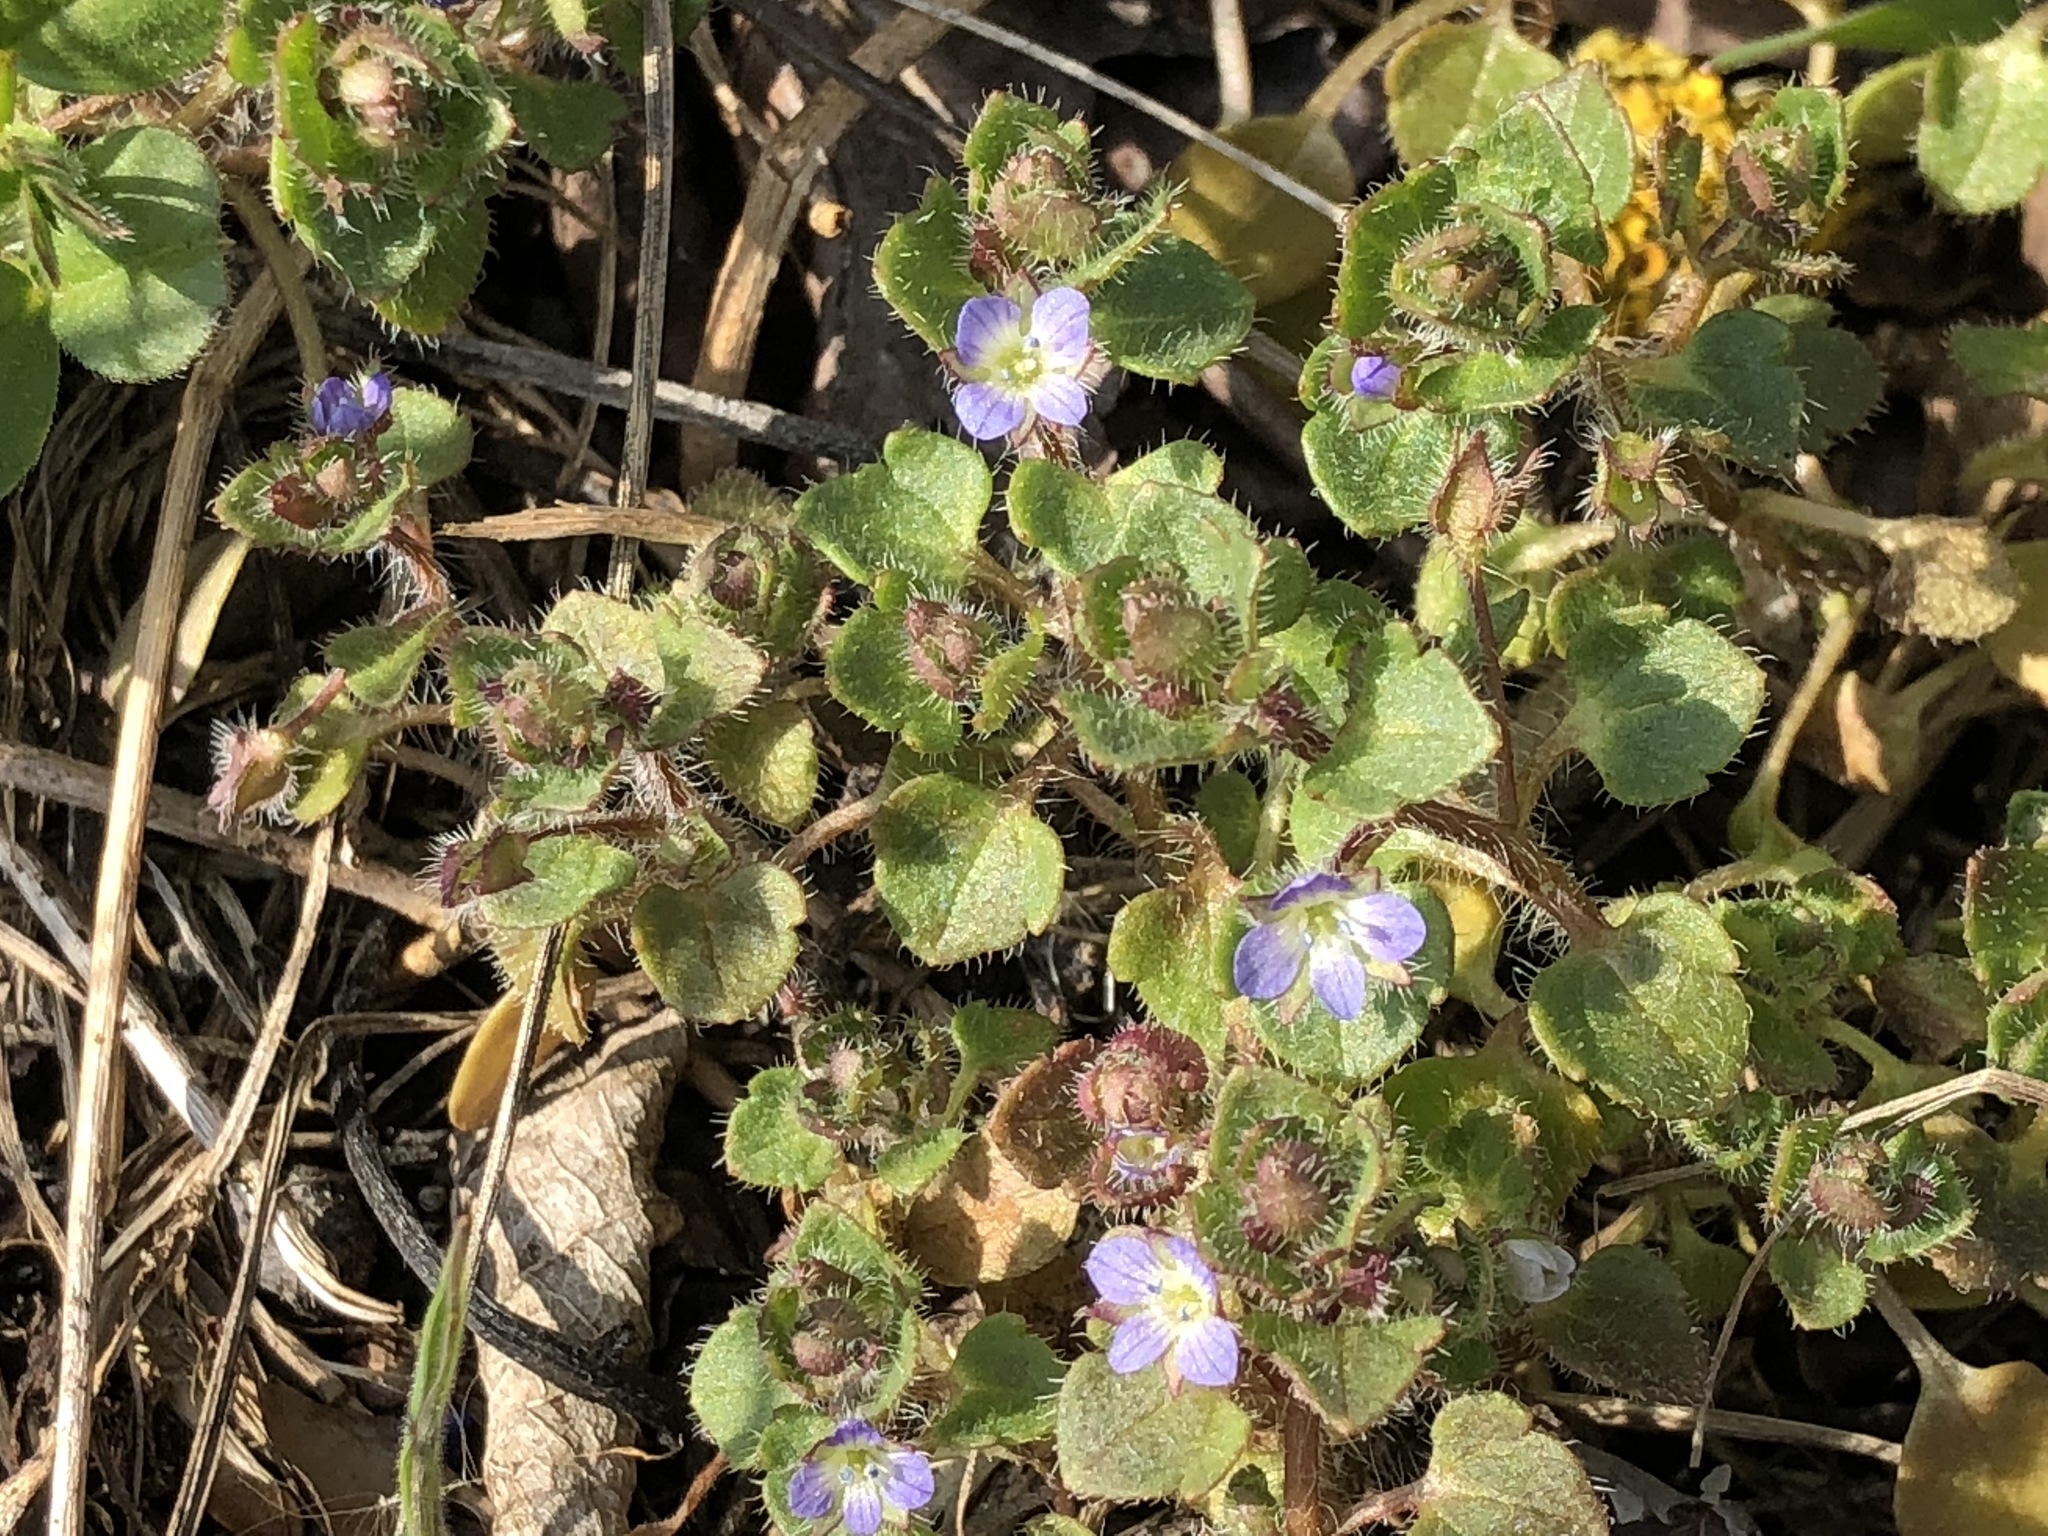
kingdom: Plantae
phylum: Tracheophyta
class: Magnoliopsida
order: Lamiales
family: Plantaginaceae
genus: Veronica
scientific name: Veronica hederifolia
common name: Ivy-leaved speedwell
